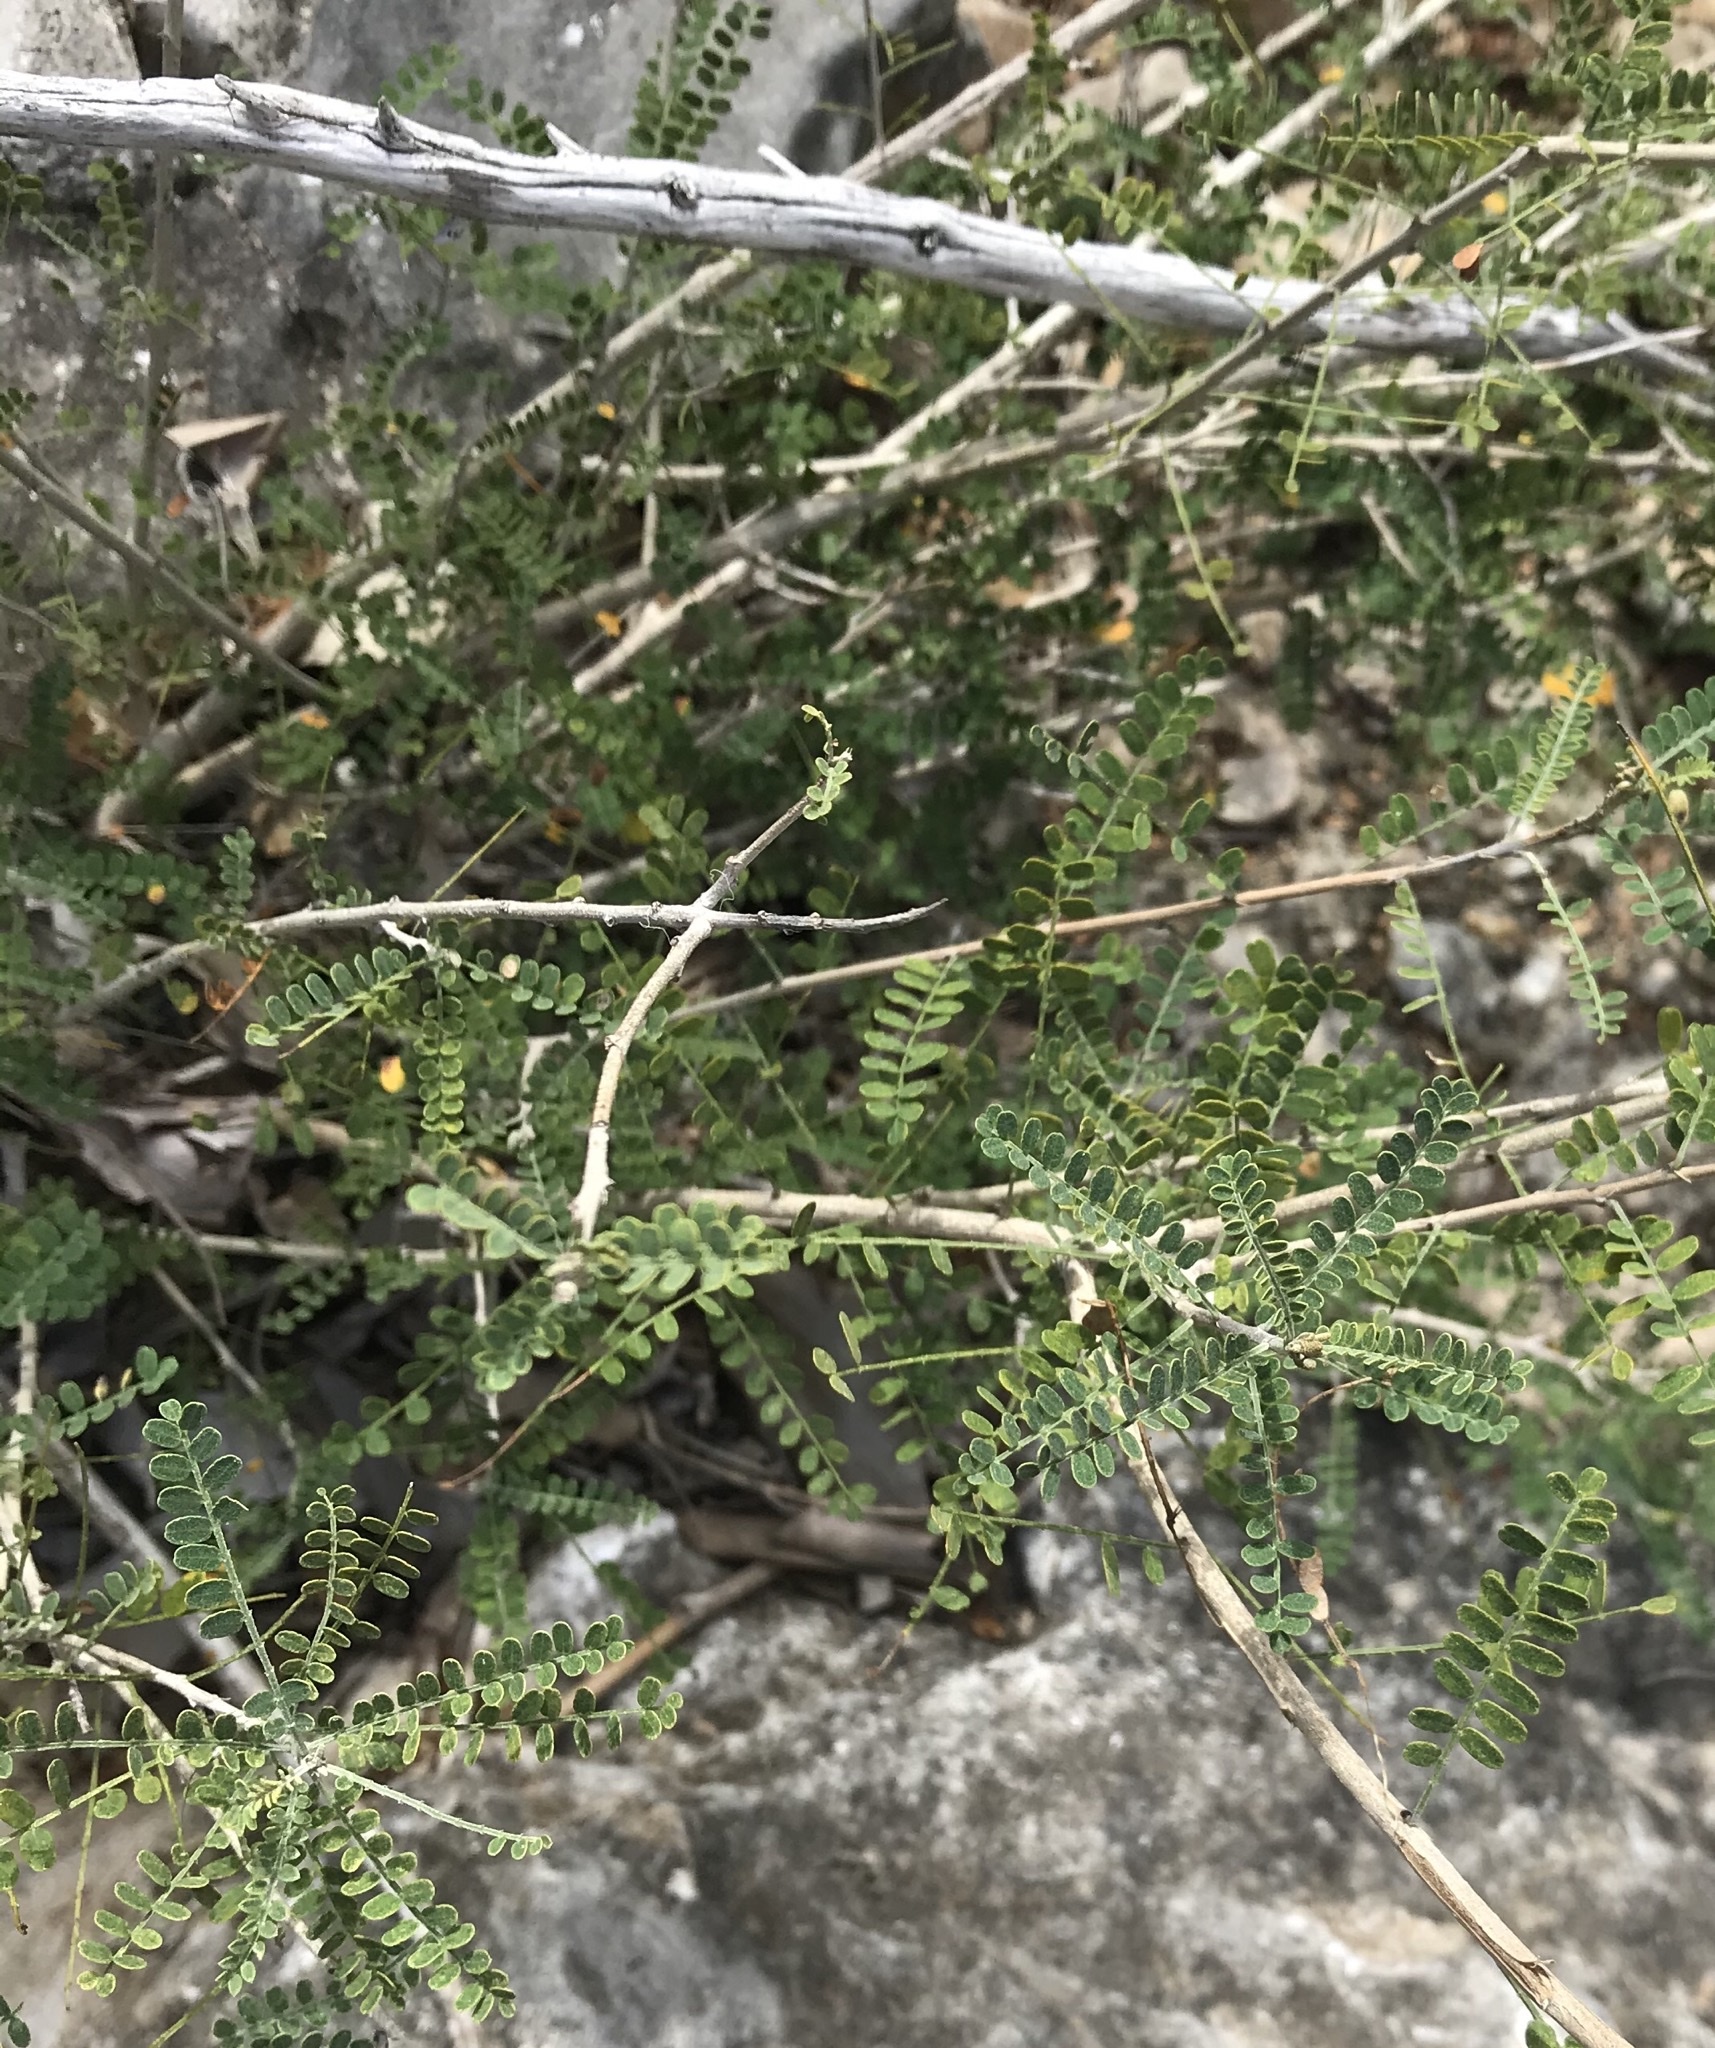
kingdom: Plantae
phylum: Tracheophyta
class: Magnoliopsida
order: Fabales
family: Fabaceae
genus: Eysenhardtia
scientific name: Eysenhardtia texana
